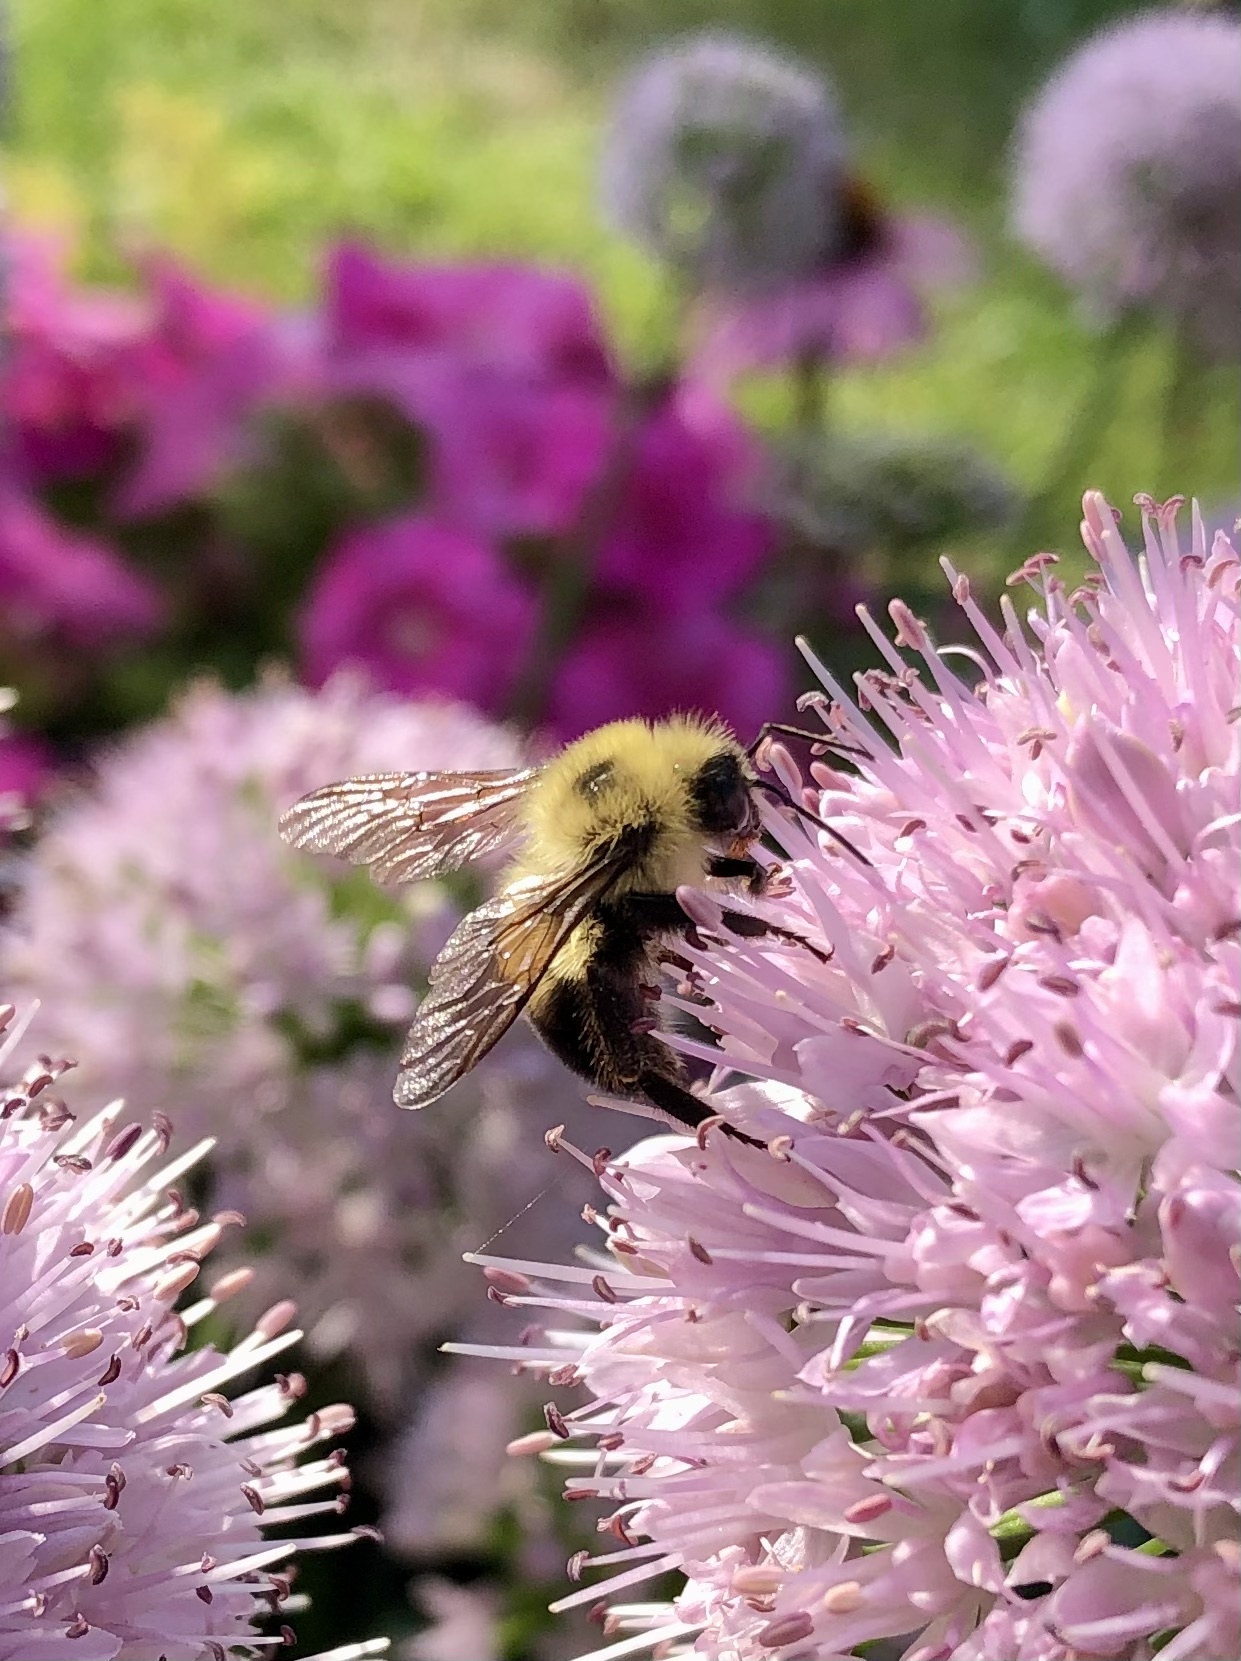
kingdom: Animalia
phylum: Arthropoda
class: Insecta
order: Hymenoptera
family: Apidae
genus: Bombus
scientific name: Bombus bimaculatus
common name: Two-spotted bumble bee
